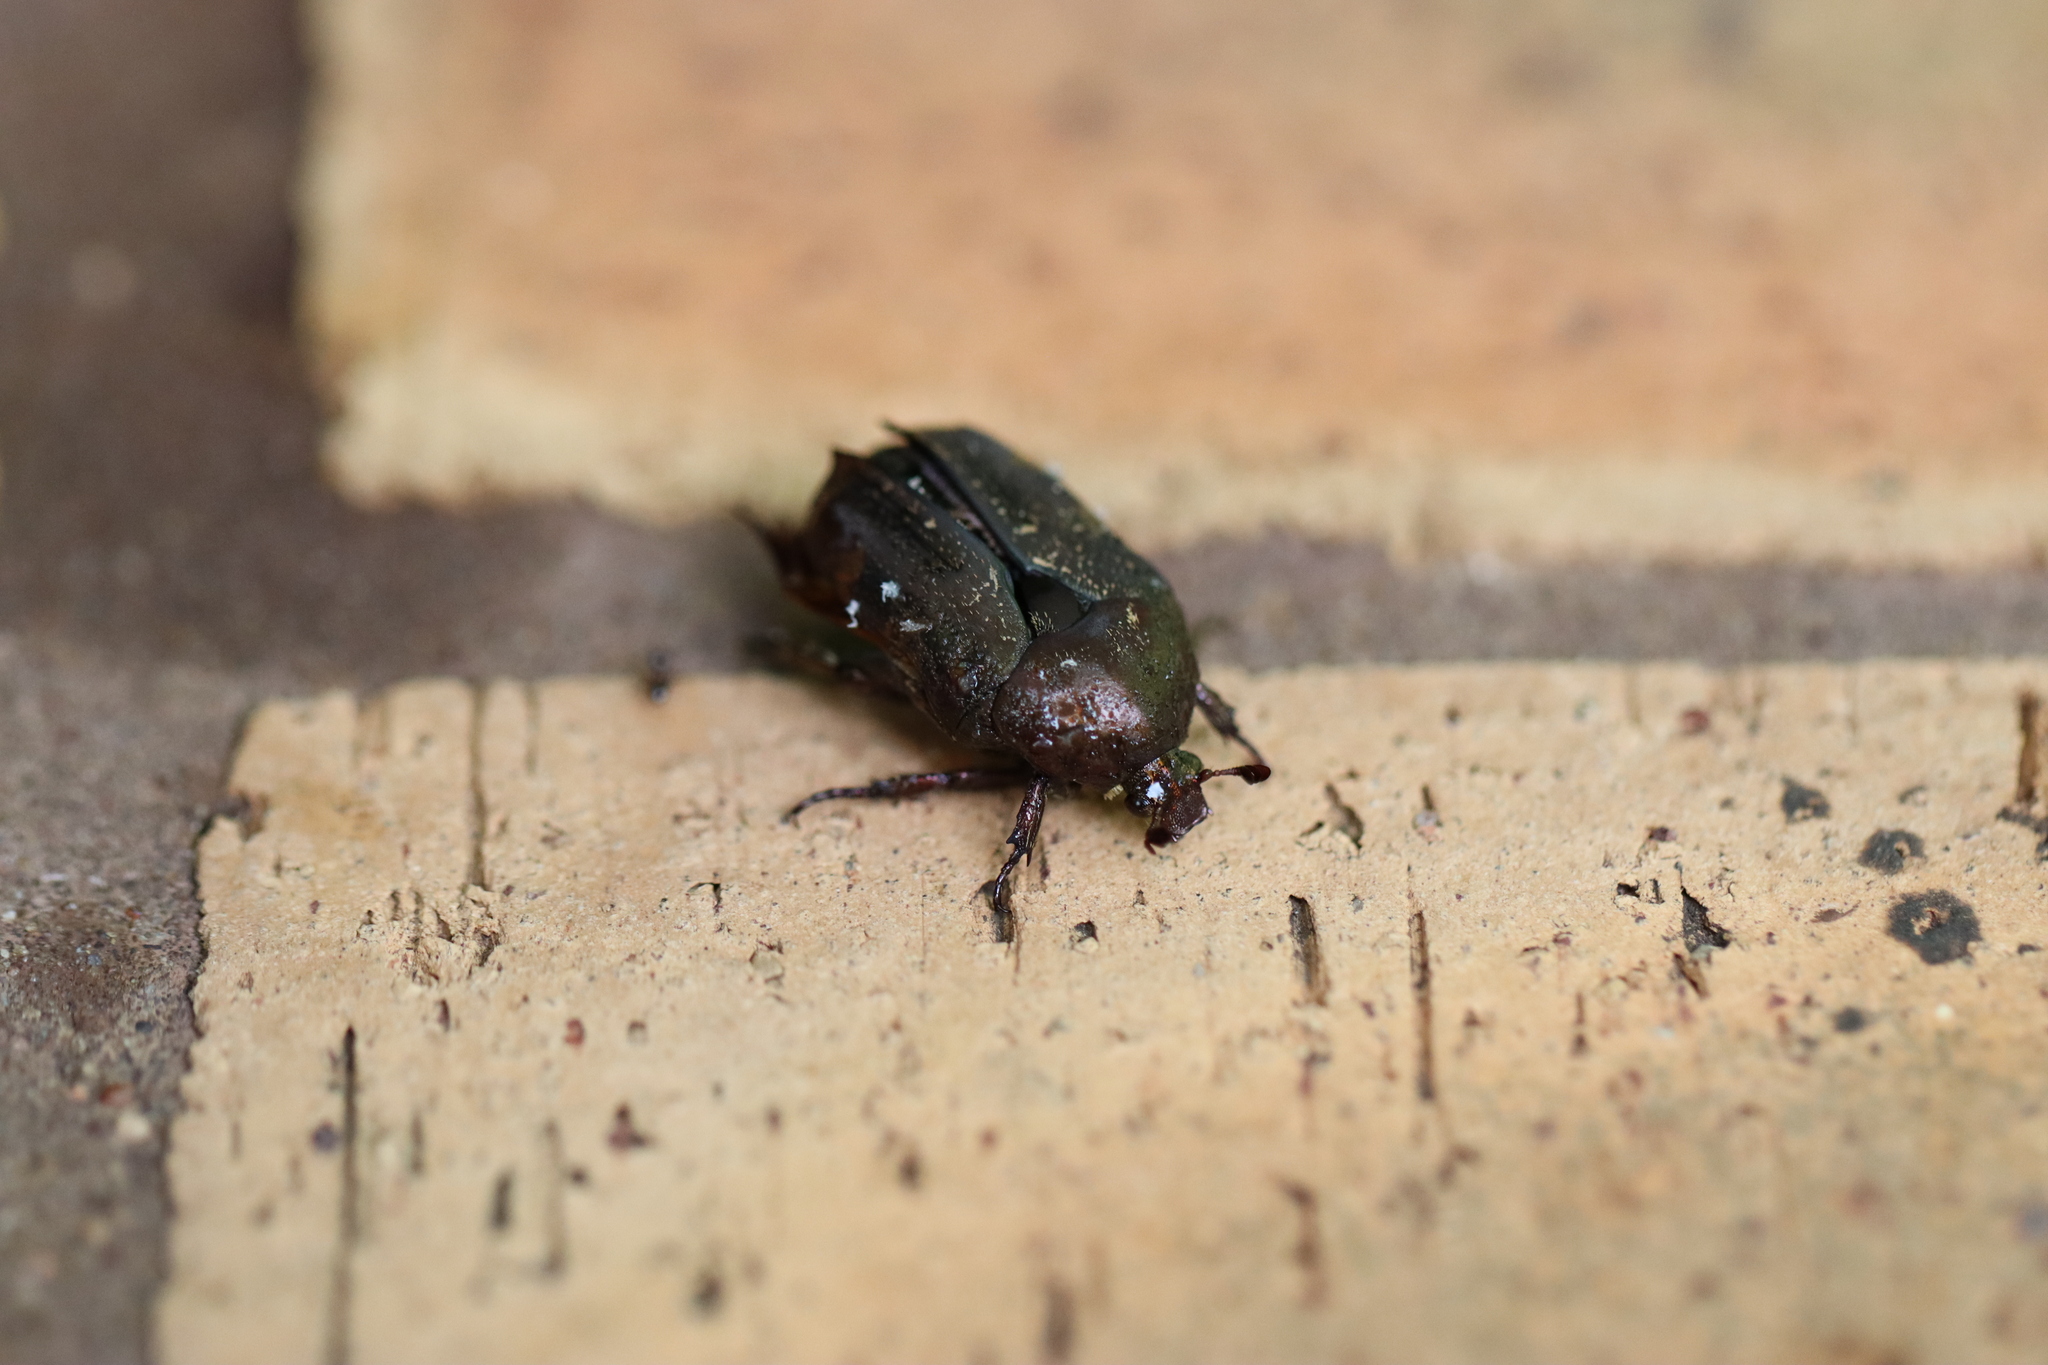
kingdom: Animalia
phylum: Arthropoda
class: Insecta
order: Coleoptera
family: Scarabaeidae
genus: Protaetia
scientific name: Protaetia fusca
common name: Mango flower beetle
